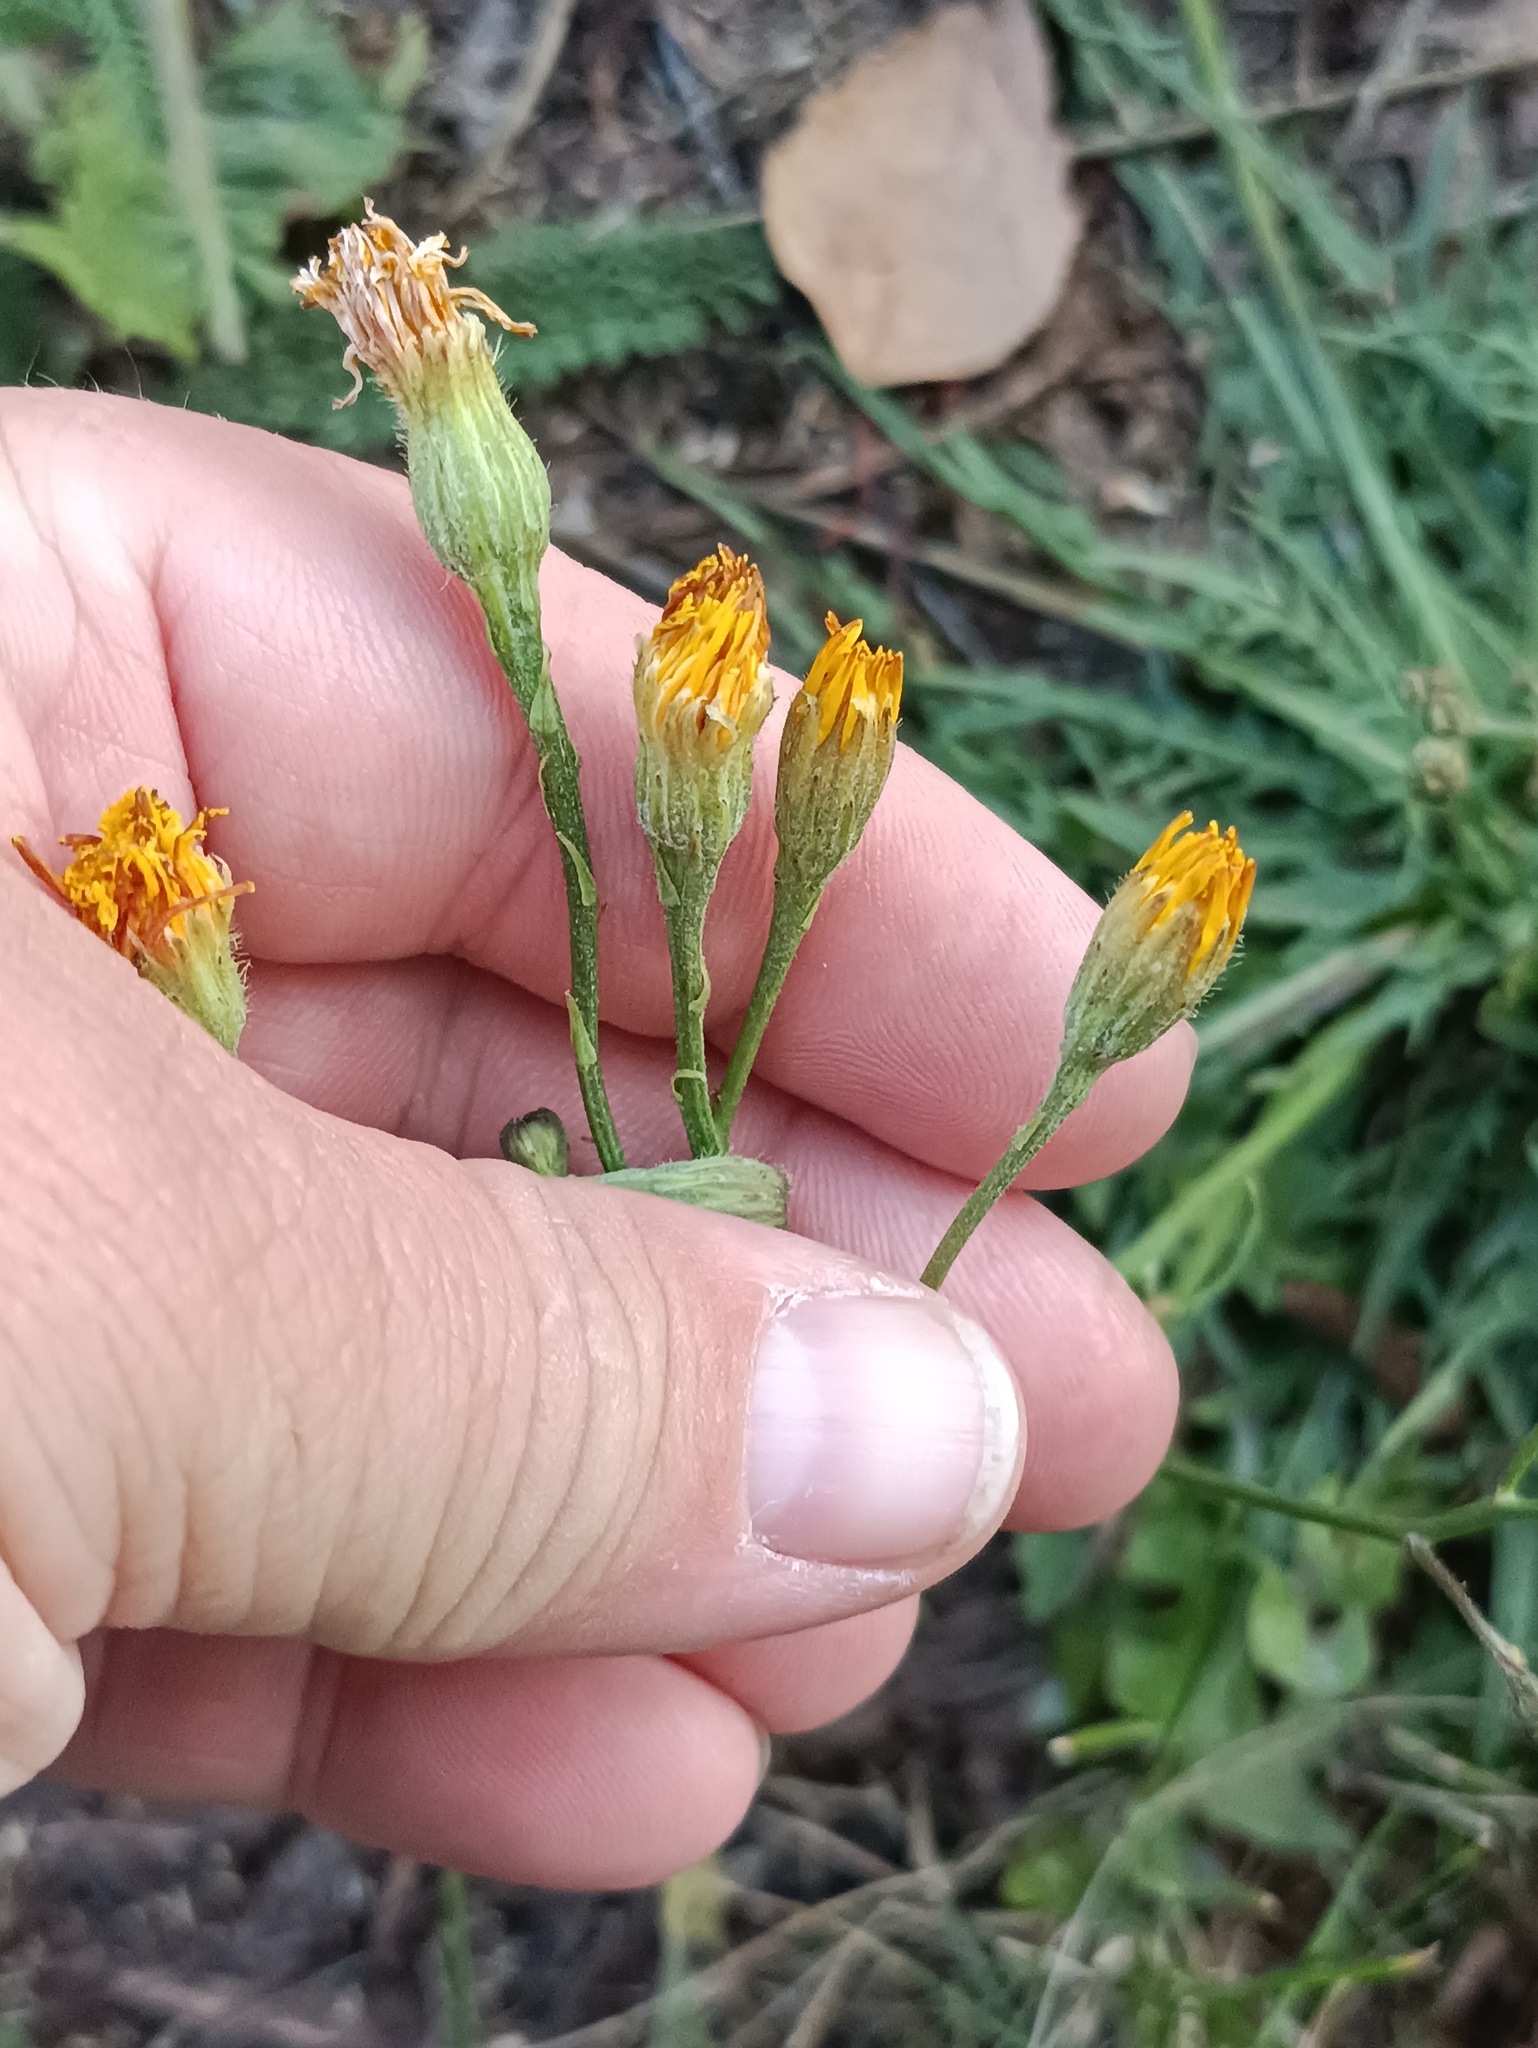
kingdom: Plantae
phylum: Tracheophyta
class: Magnoliopsida
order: Asterales
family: Asteraceae
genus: Scorzoneroides
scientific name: Scorzoneroides autumnalis
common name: Autumn hawkbit
